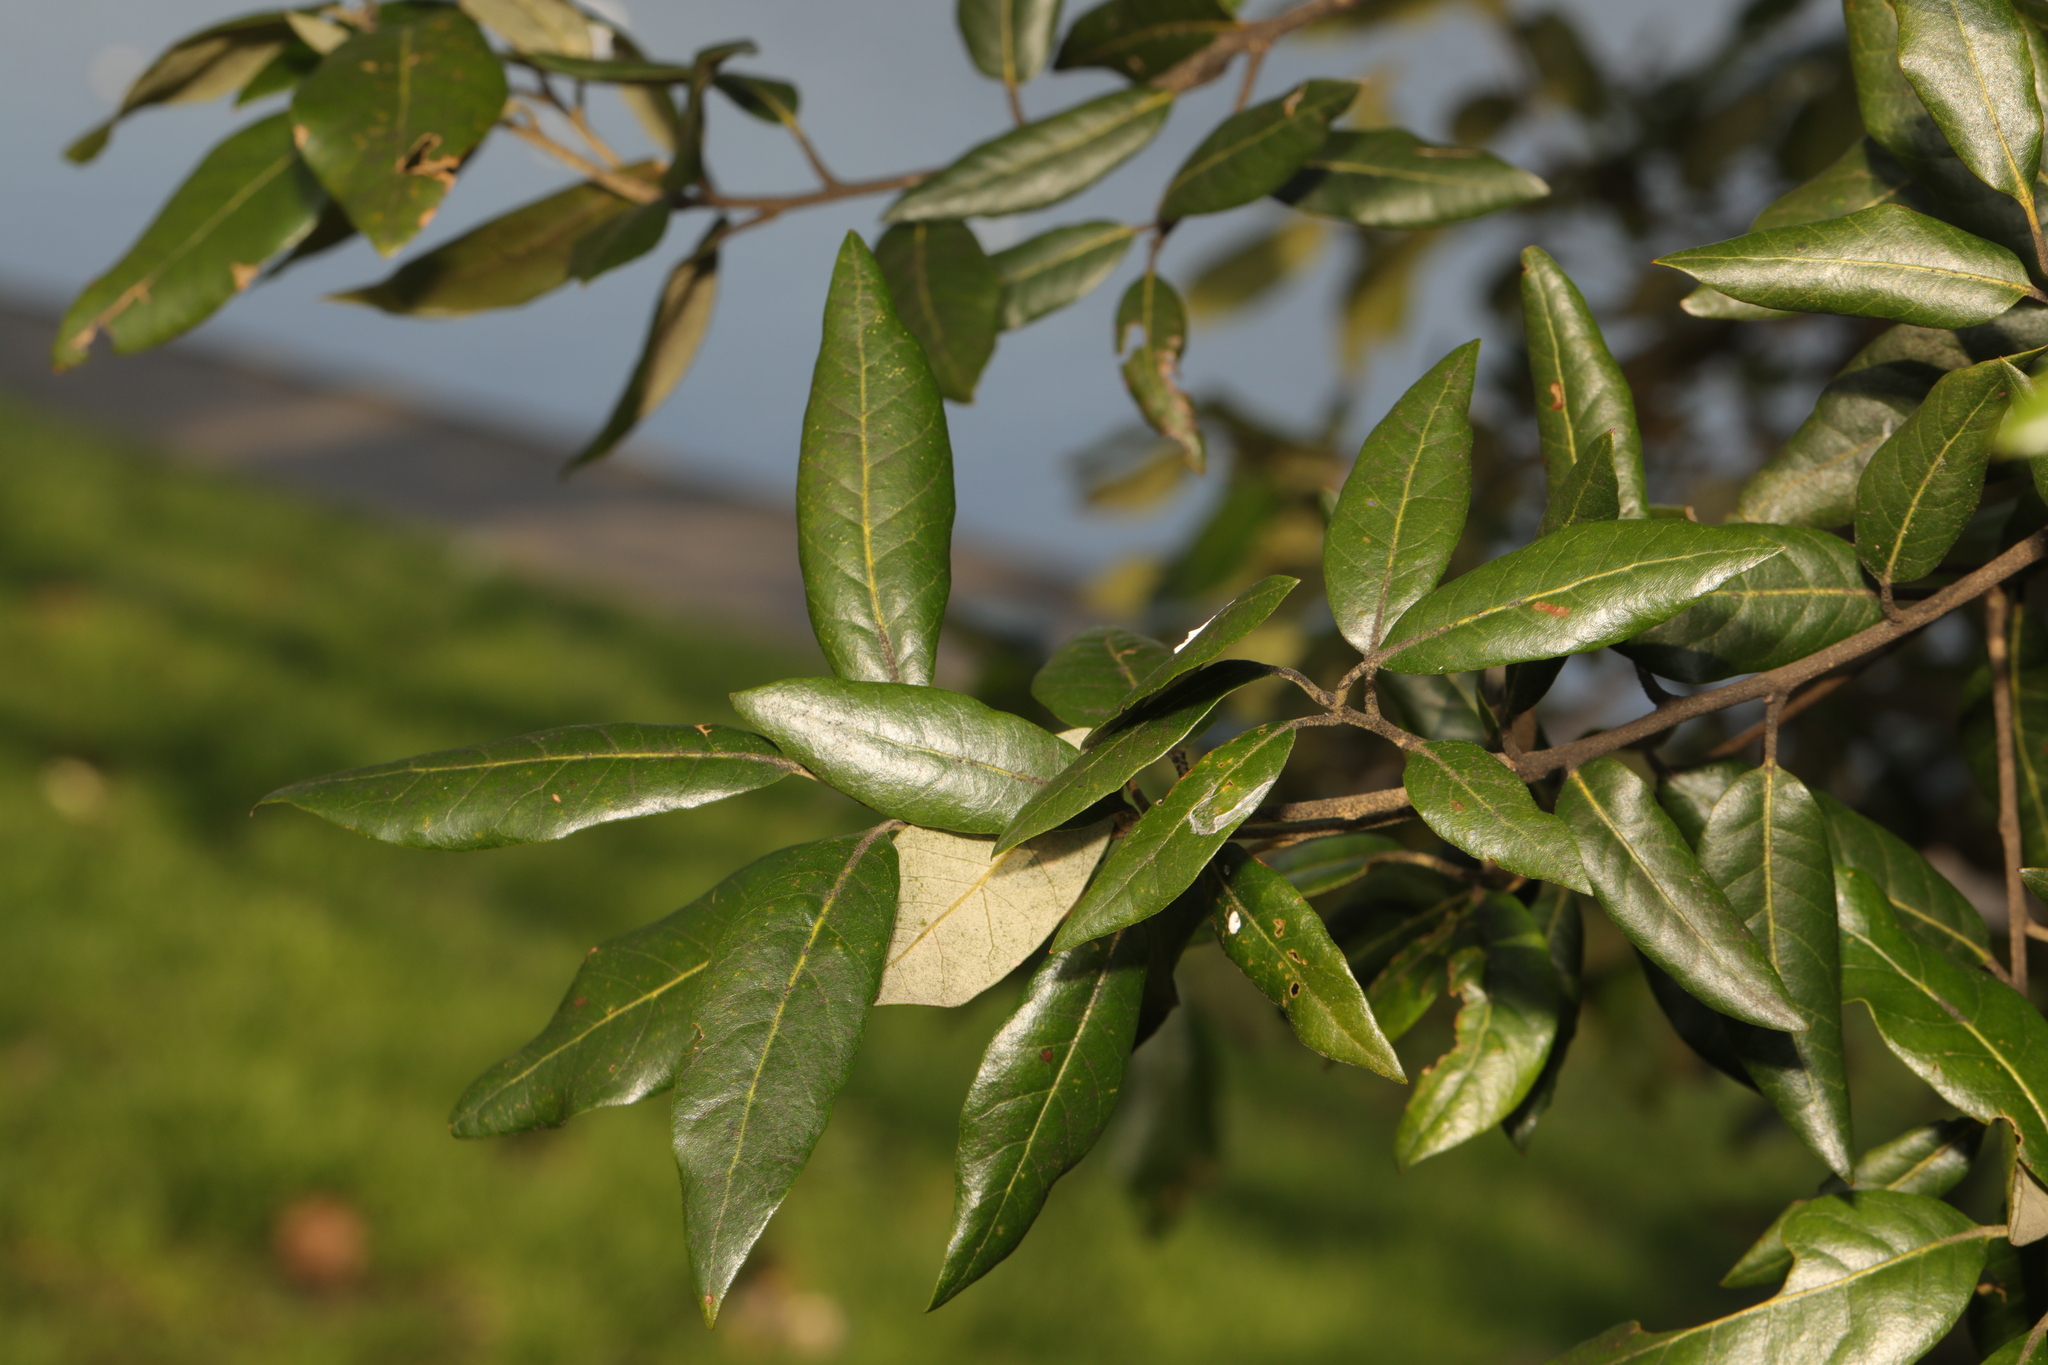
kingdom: Plantae
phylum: Tracheophyta
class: Magnoliopsida
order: Fagales
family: Fagaceae
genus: Quercus
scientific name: Quercus ilex
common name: Evergreen oak
